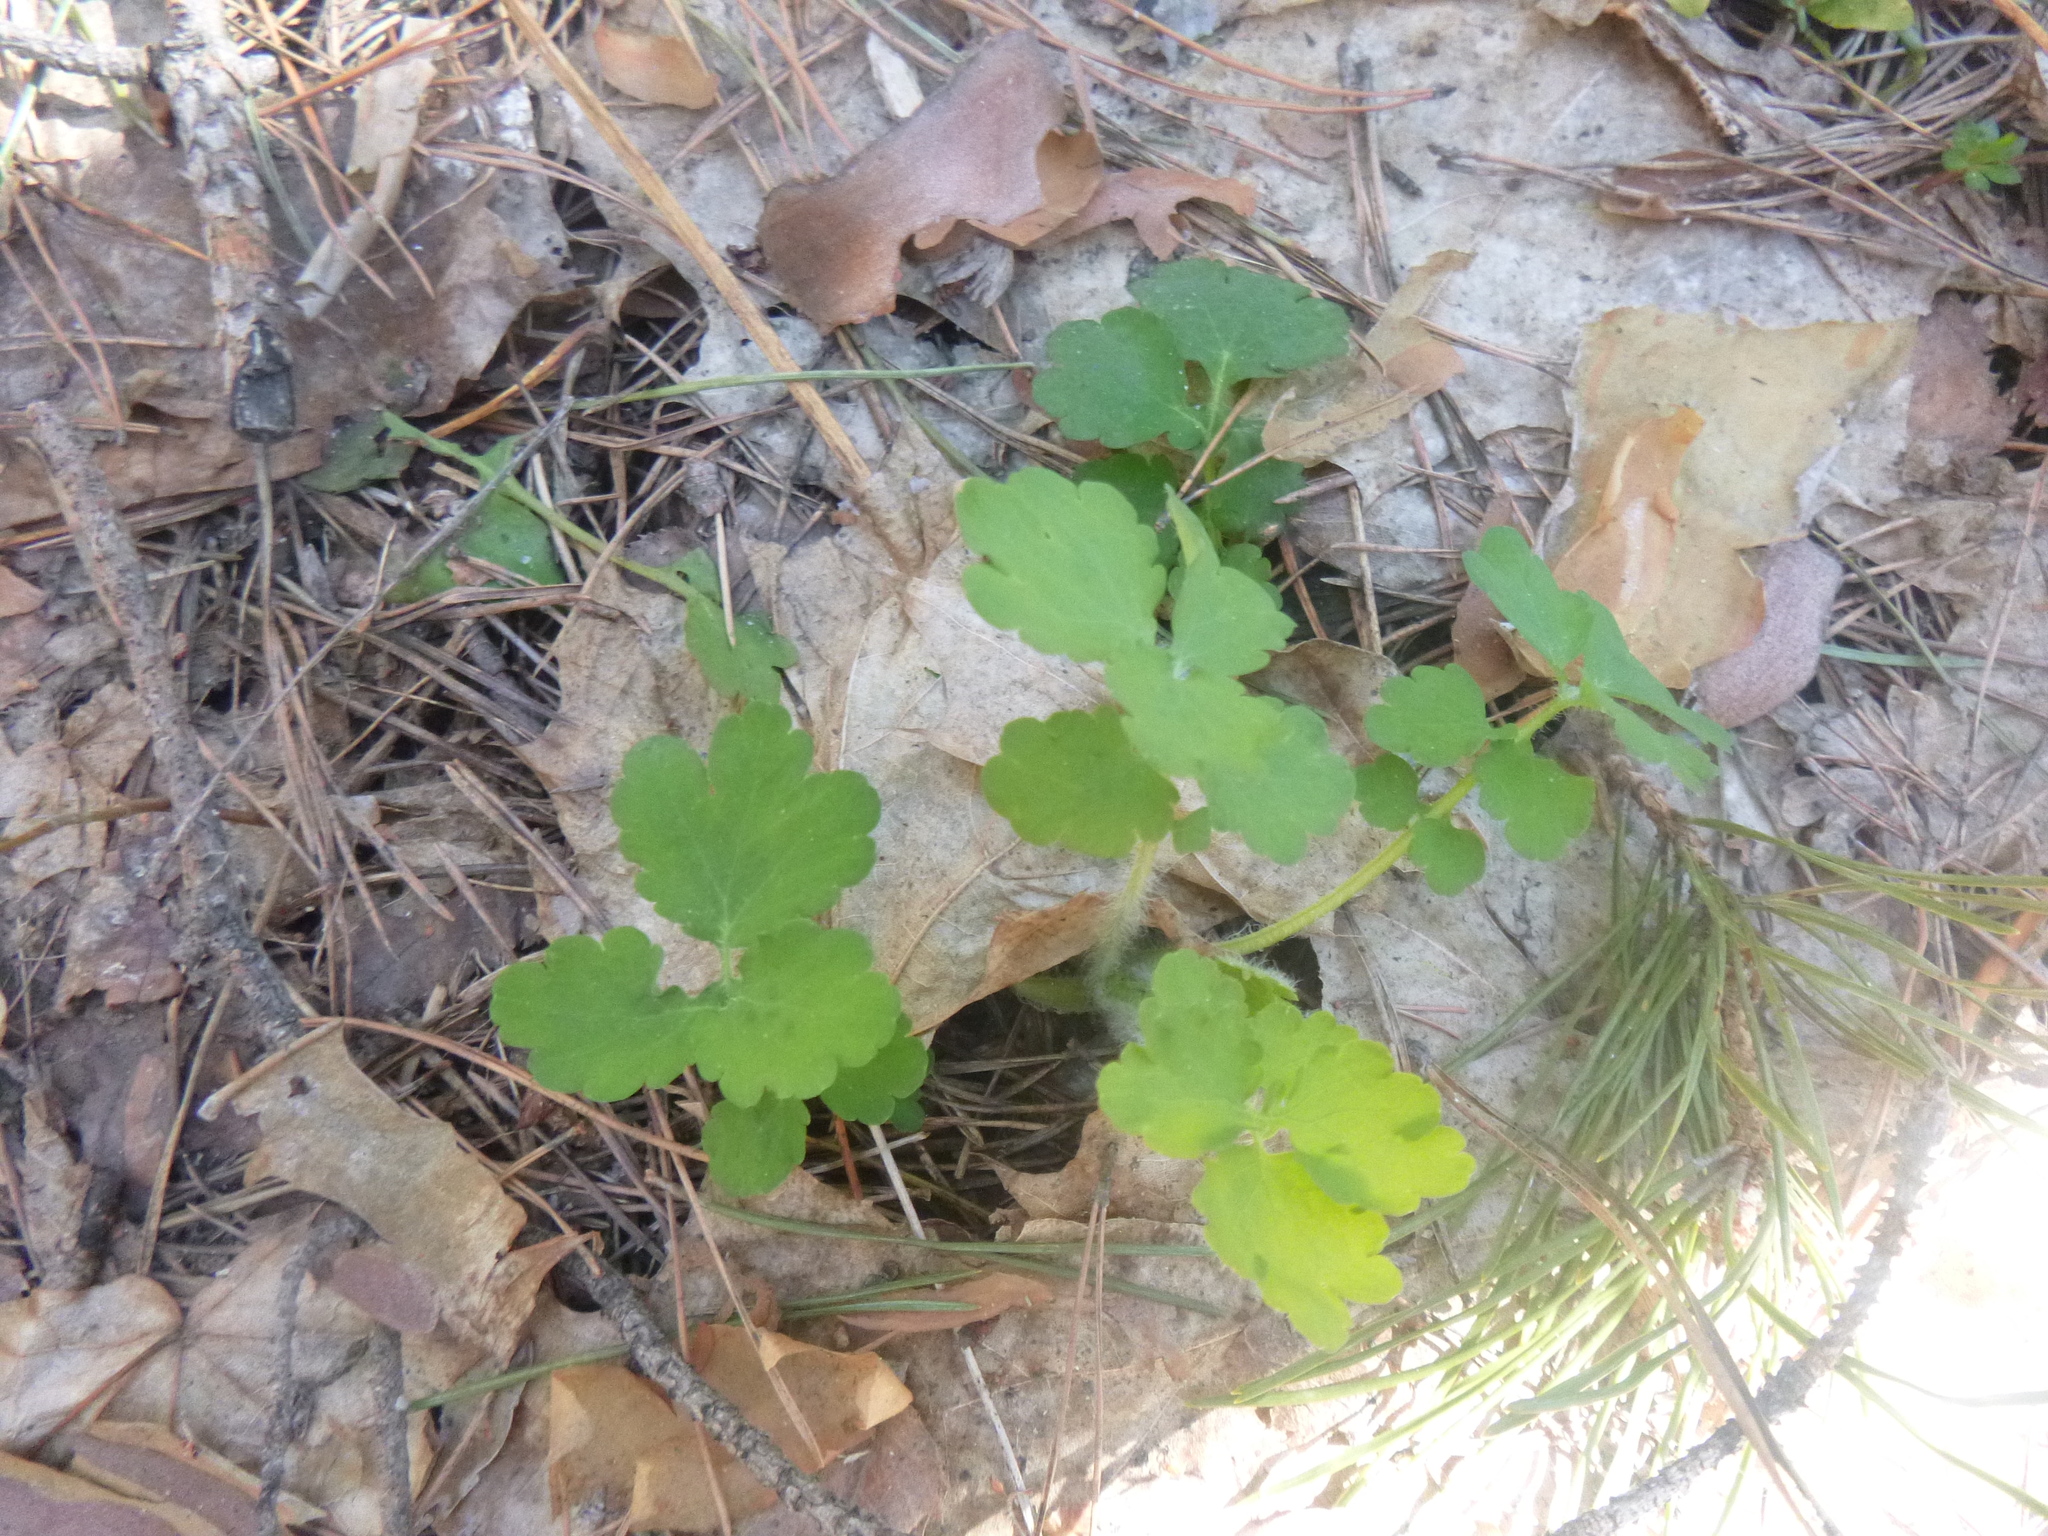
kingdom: Plantae
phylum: Tracheophyta
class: Magnoliopsida
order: Ranunculales
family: Papaveraceae
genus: Chelidonium
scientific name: Chelidonium majus
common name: Greater celandine
